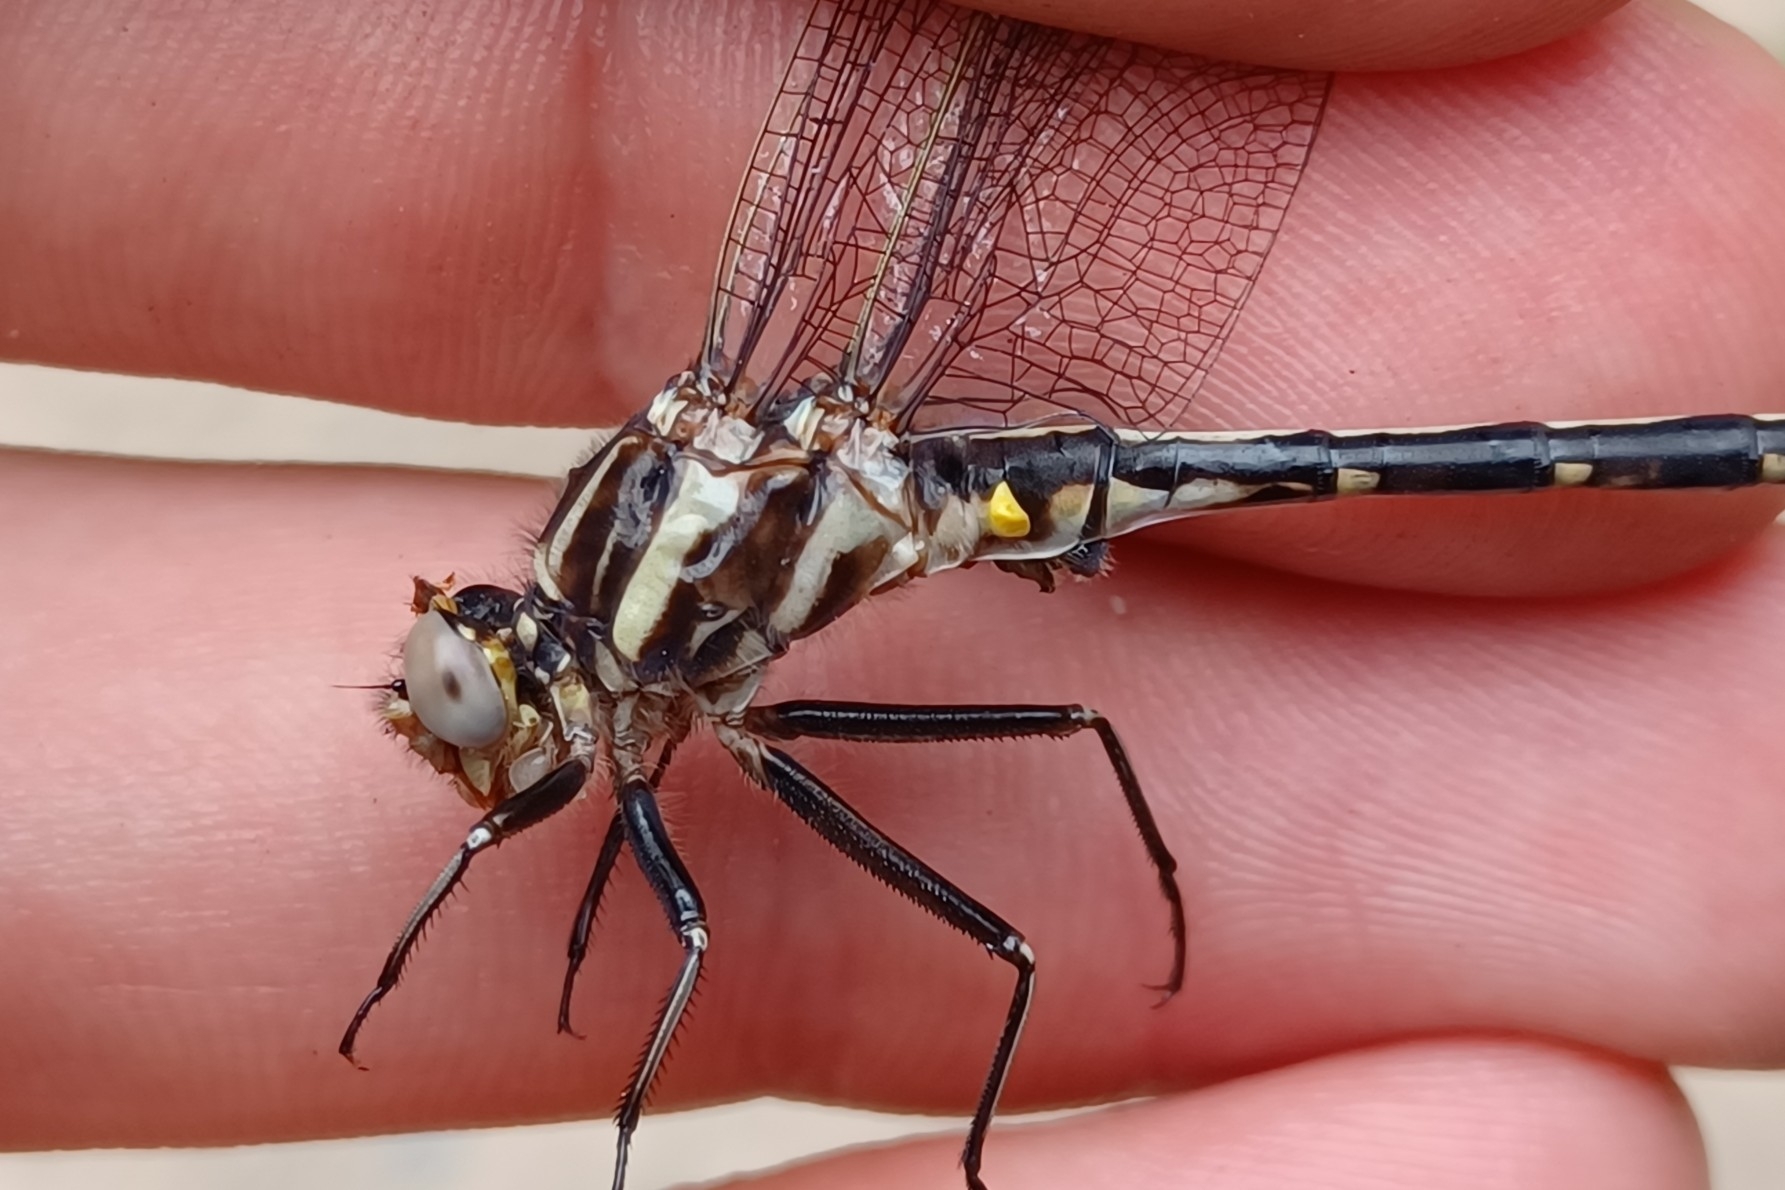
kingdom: Animalia
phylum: Arthropoda
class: Insecta
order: Odonata
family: Gomphidae
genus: Phanogomphus
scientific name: Phanogomphus spicatus
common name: Dusky clubtail
